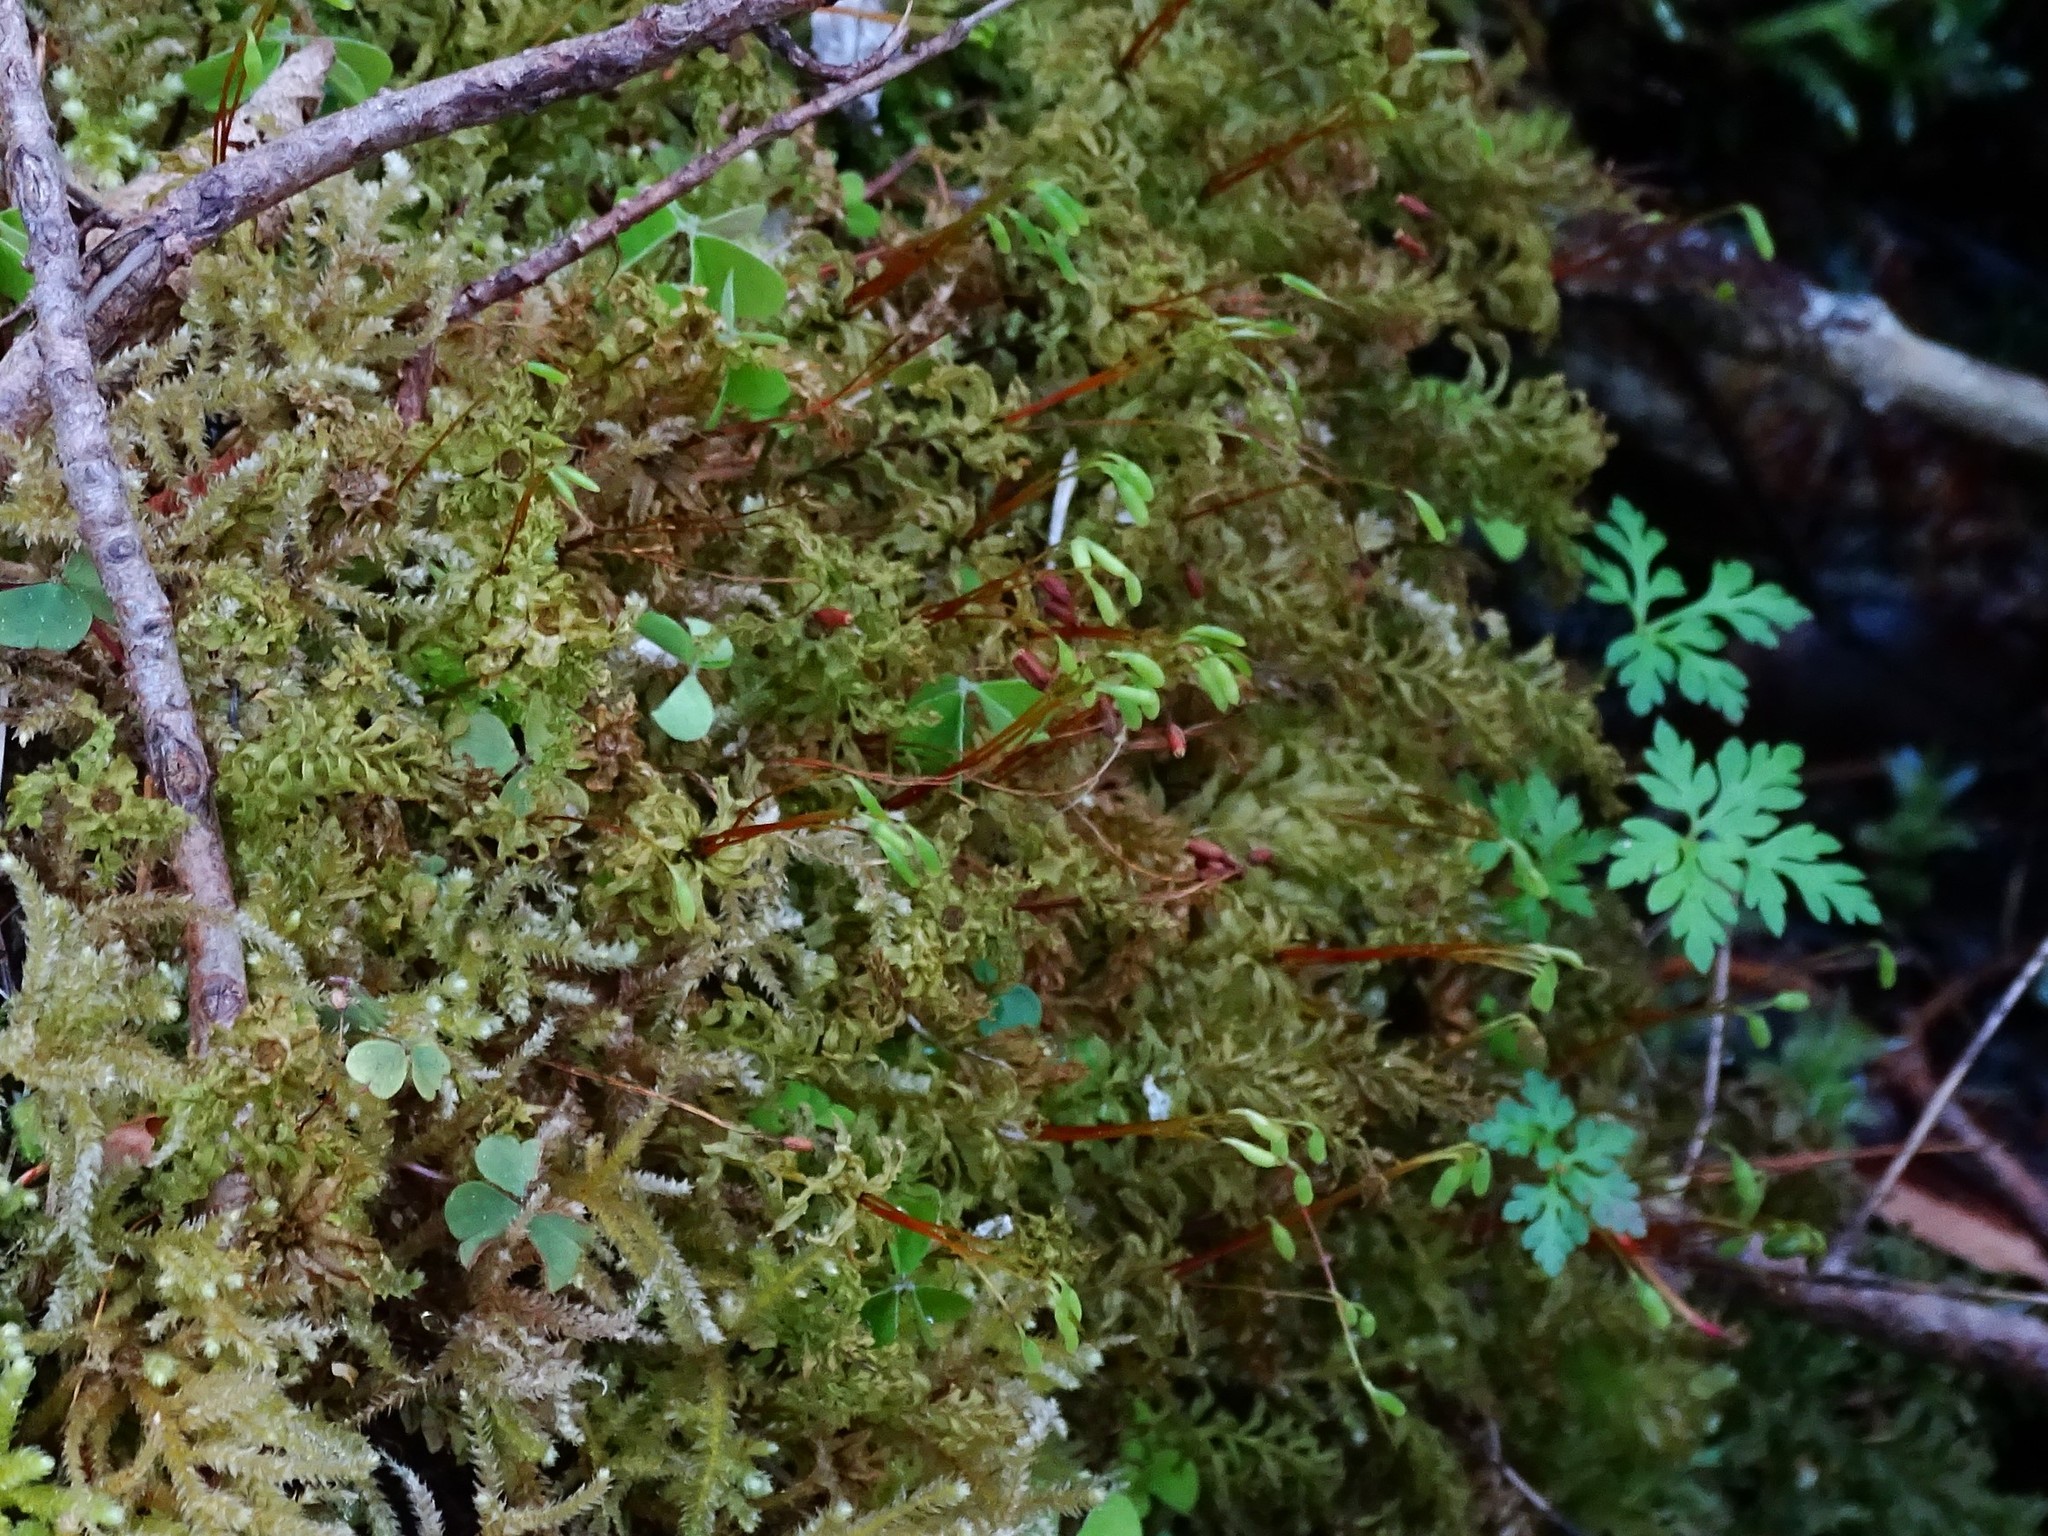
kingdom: Plantae
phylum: Bryophyta
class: Bryopsida
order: Bryales
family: Mniaceae
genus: Plagiomnium
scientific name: Plagiomnium undulatum
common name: Hart's-tongue thyme-moss
